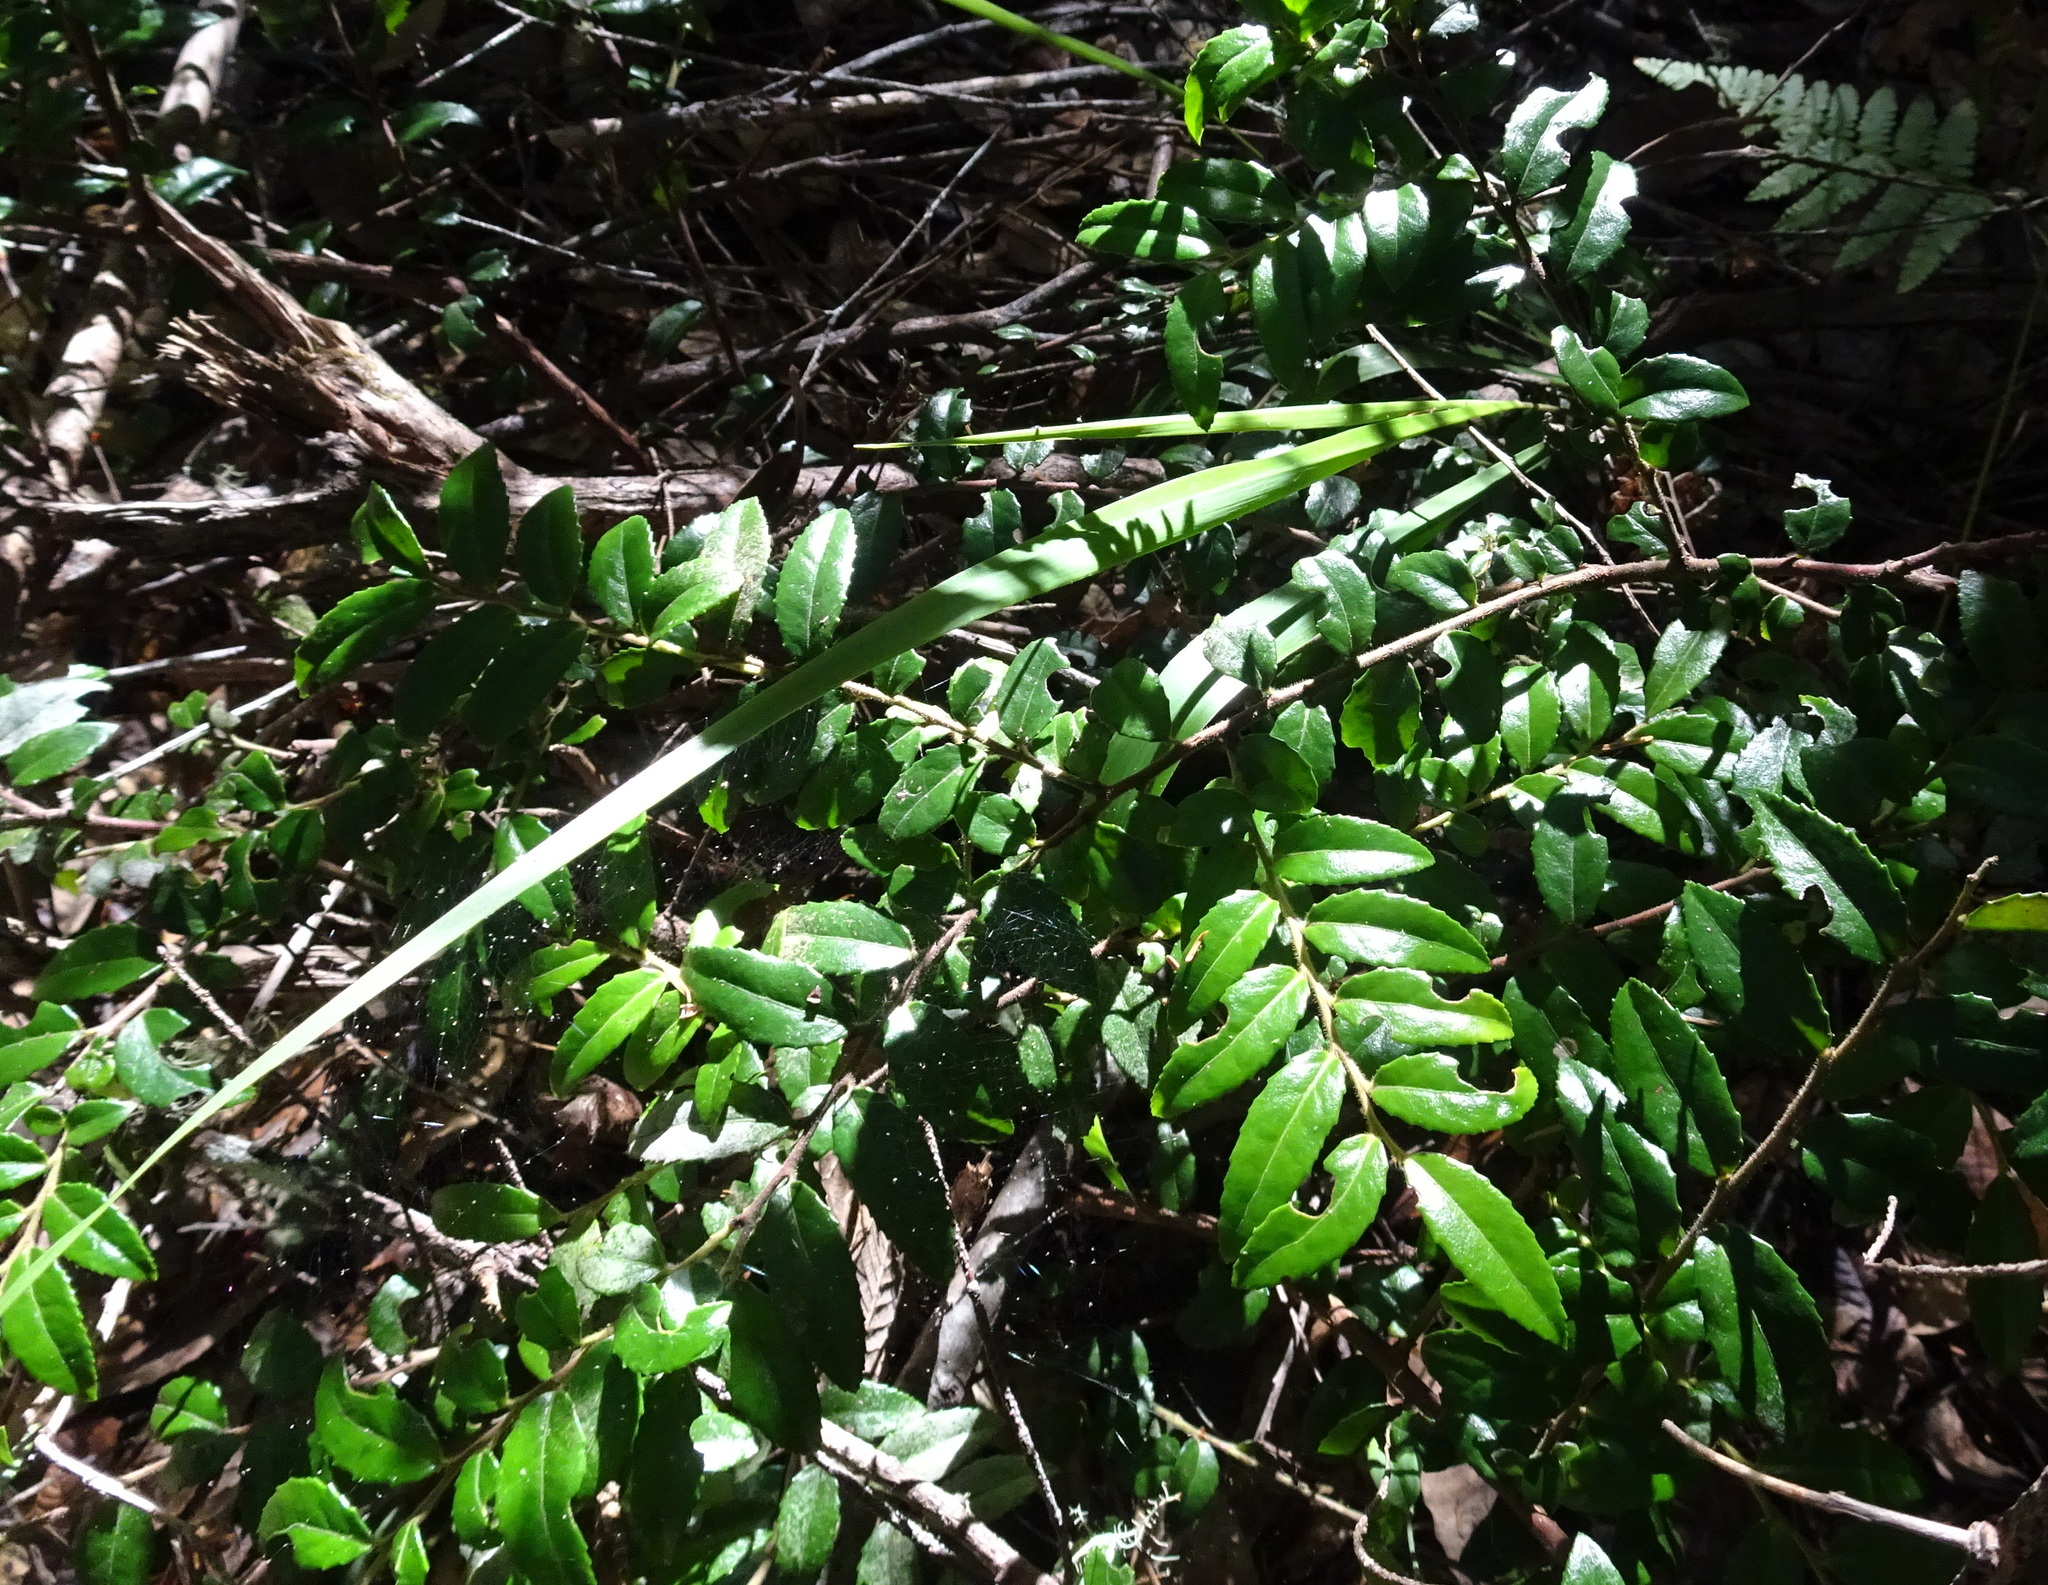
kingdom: Plantae
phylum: Tracheophyta
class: Magnoliopsida
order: Ericales
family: Ericaceae
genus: Vaccinium
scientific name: Vaccinium ovatum
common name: California-huckleberry
